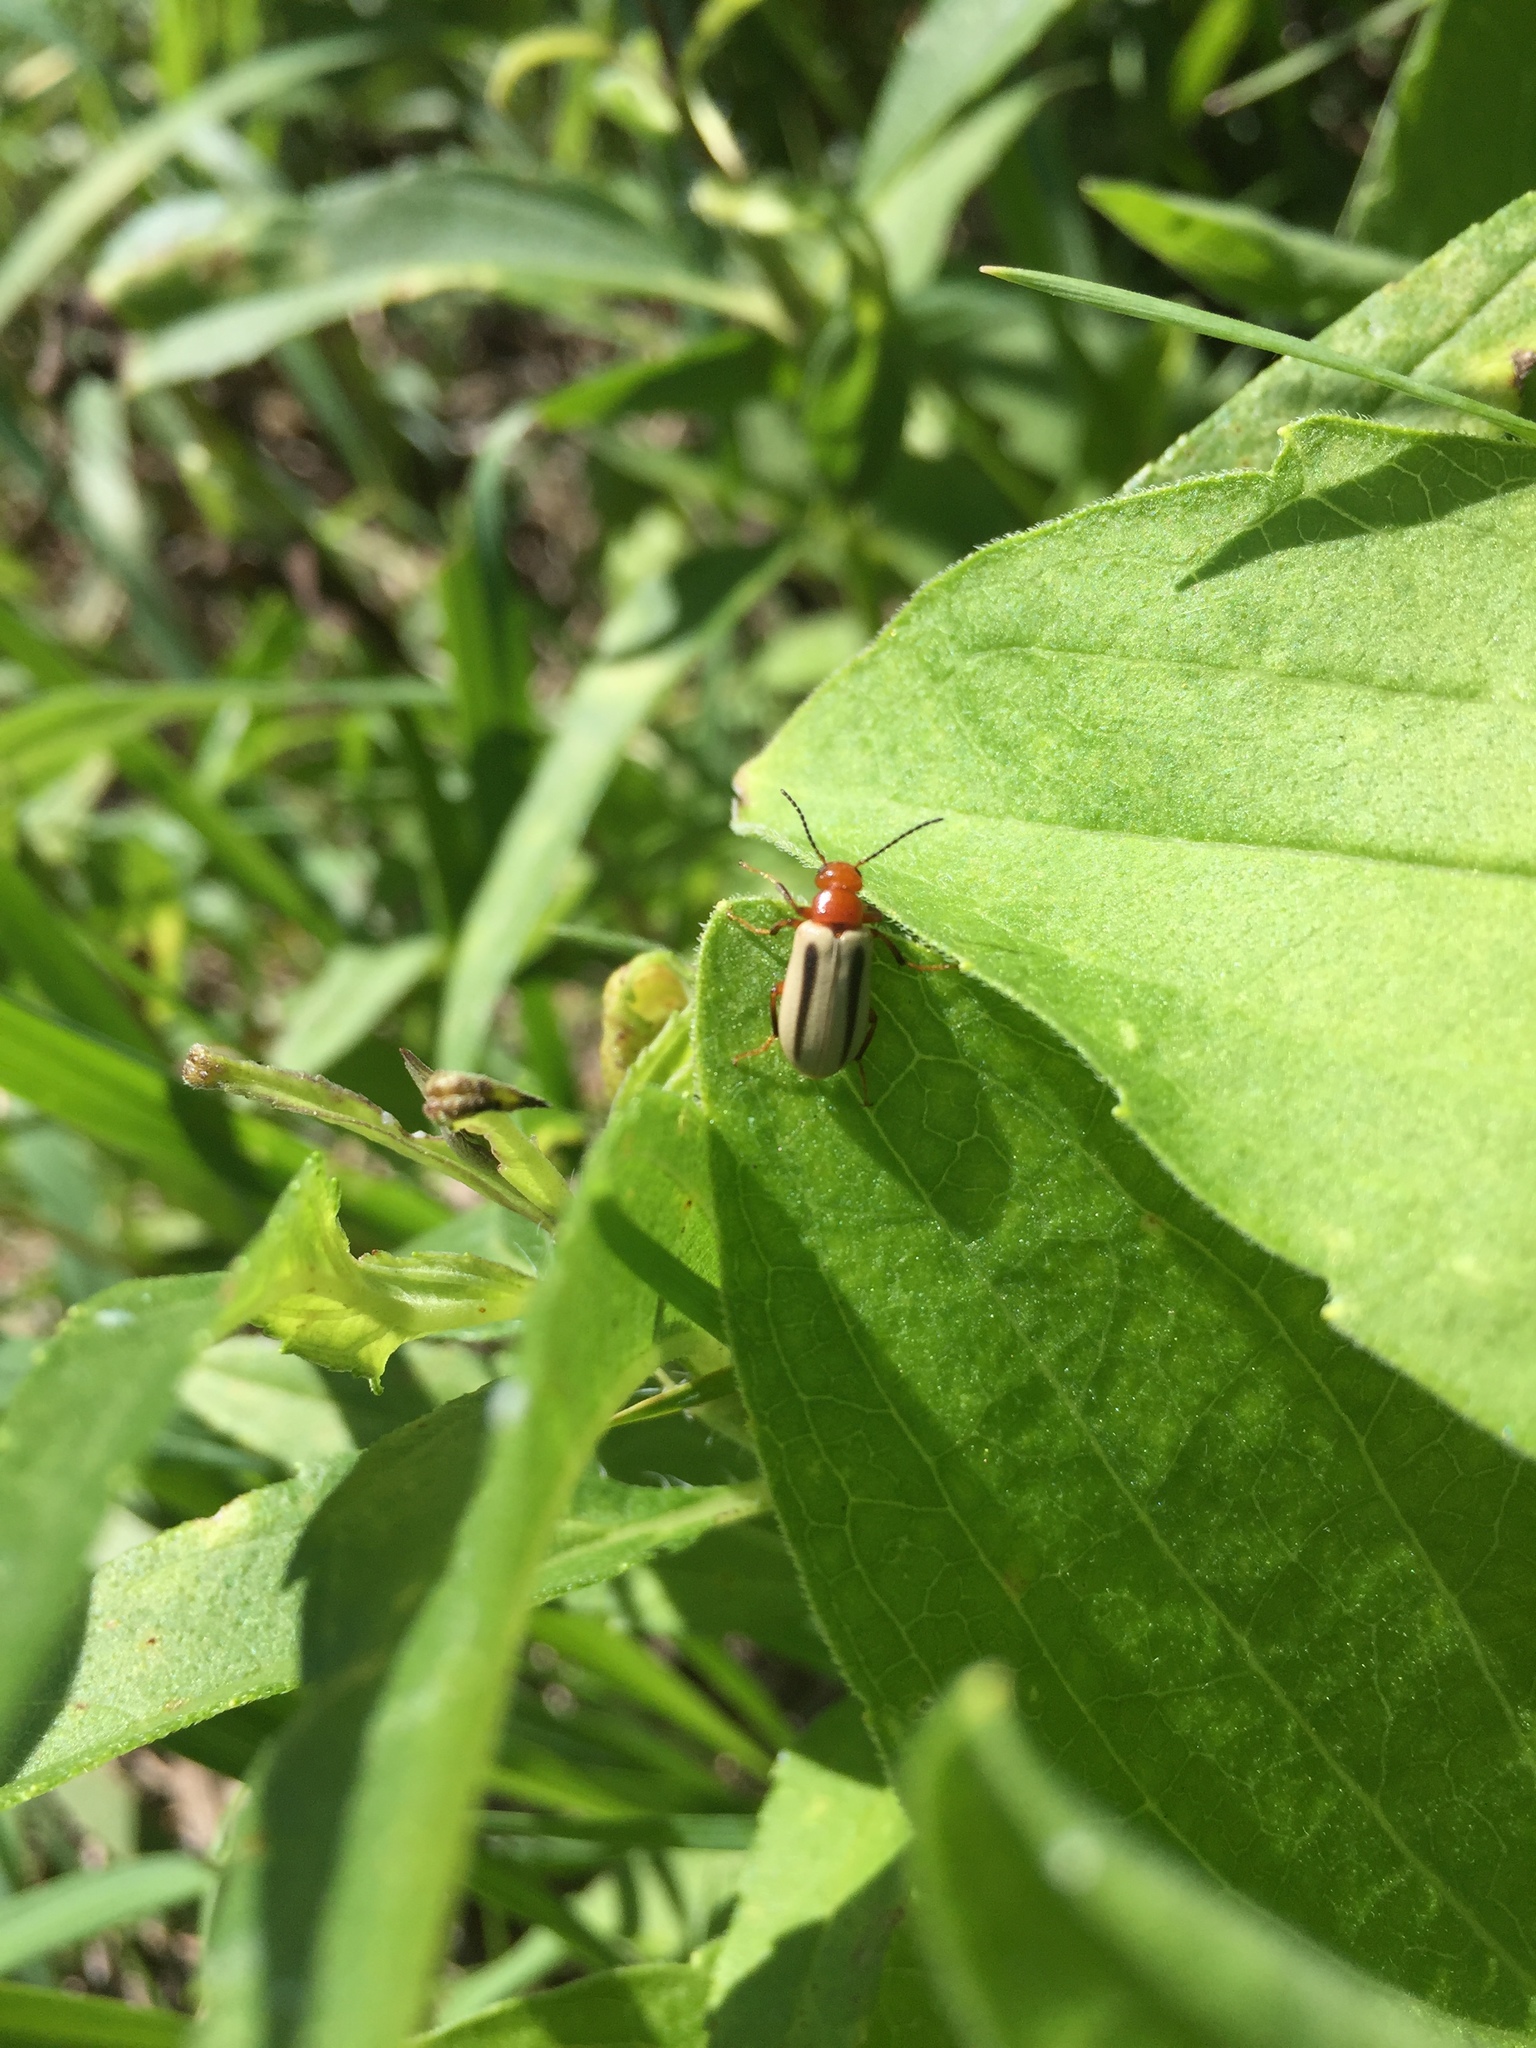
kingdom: Animalia
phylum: Arthropoda
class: Insecta
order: Coleoptera
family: Meloidae
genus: Zonitis
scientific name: Zonitis bilineata
